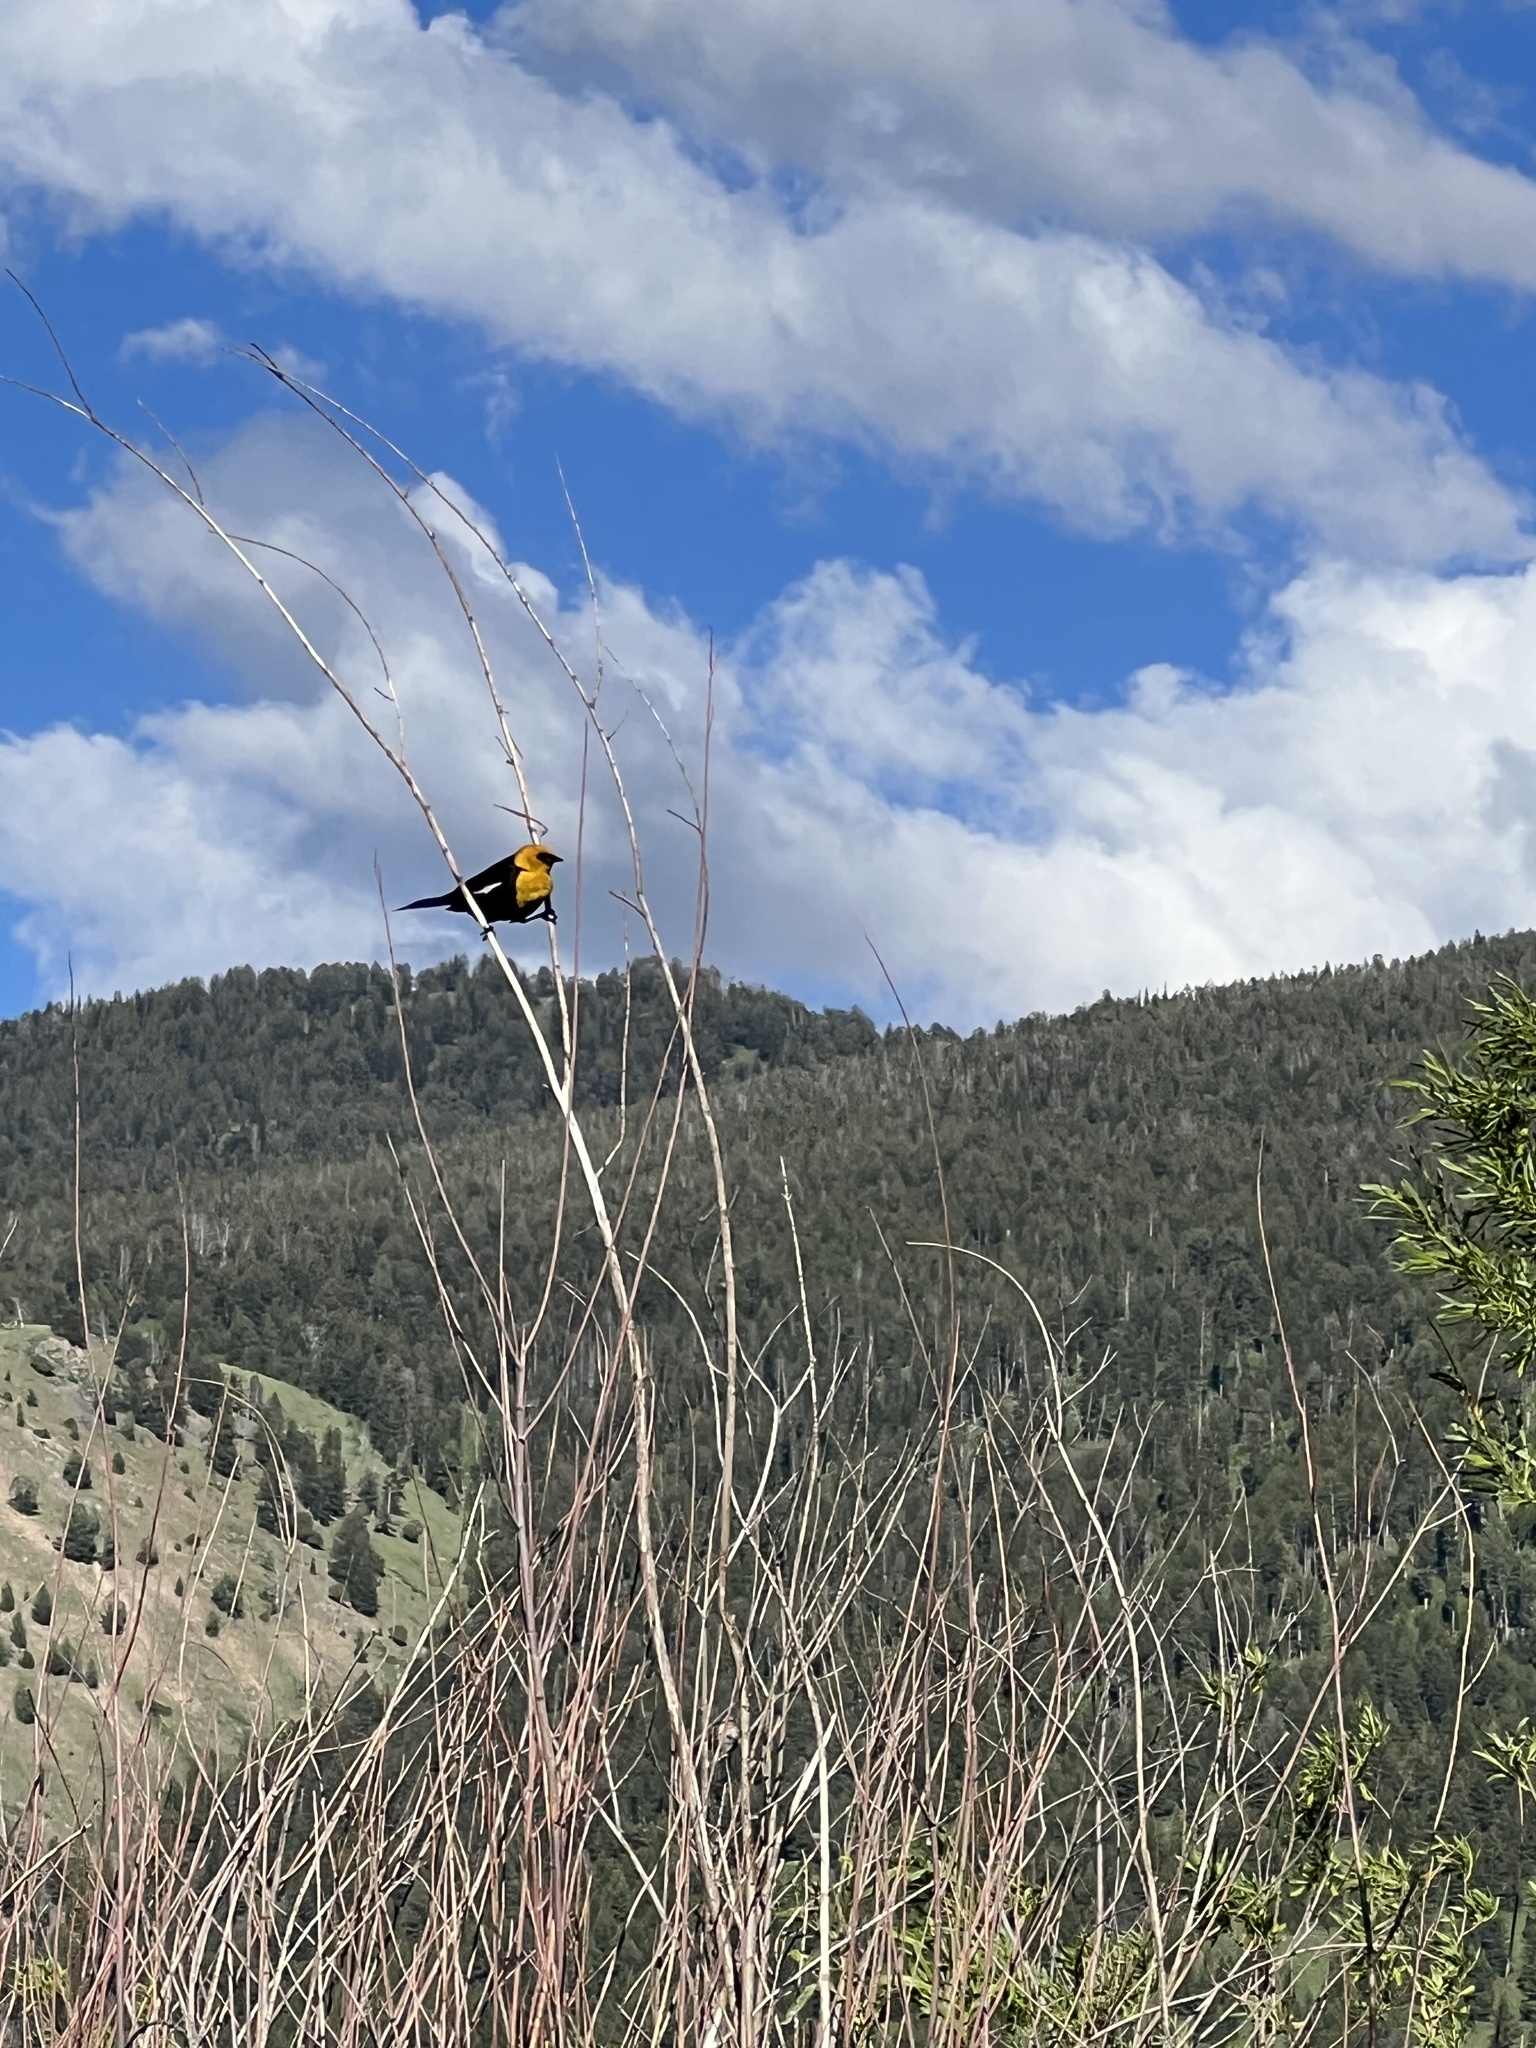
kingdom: Animalia
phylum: Chordata
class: Aves
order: Passeriformes
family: Icteridae
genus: Xanthocephalus
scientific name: Xanthocephalus xanthocephalus
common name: Yellow-headed blackbird
